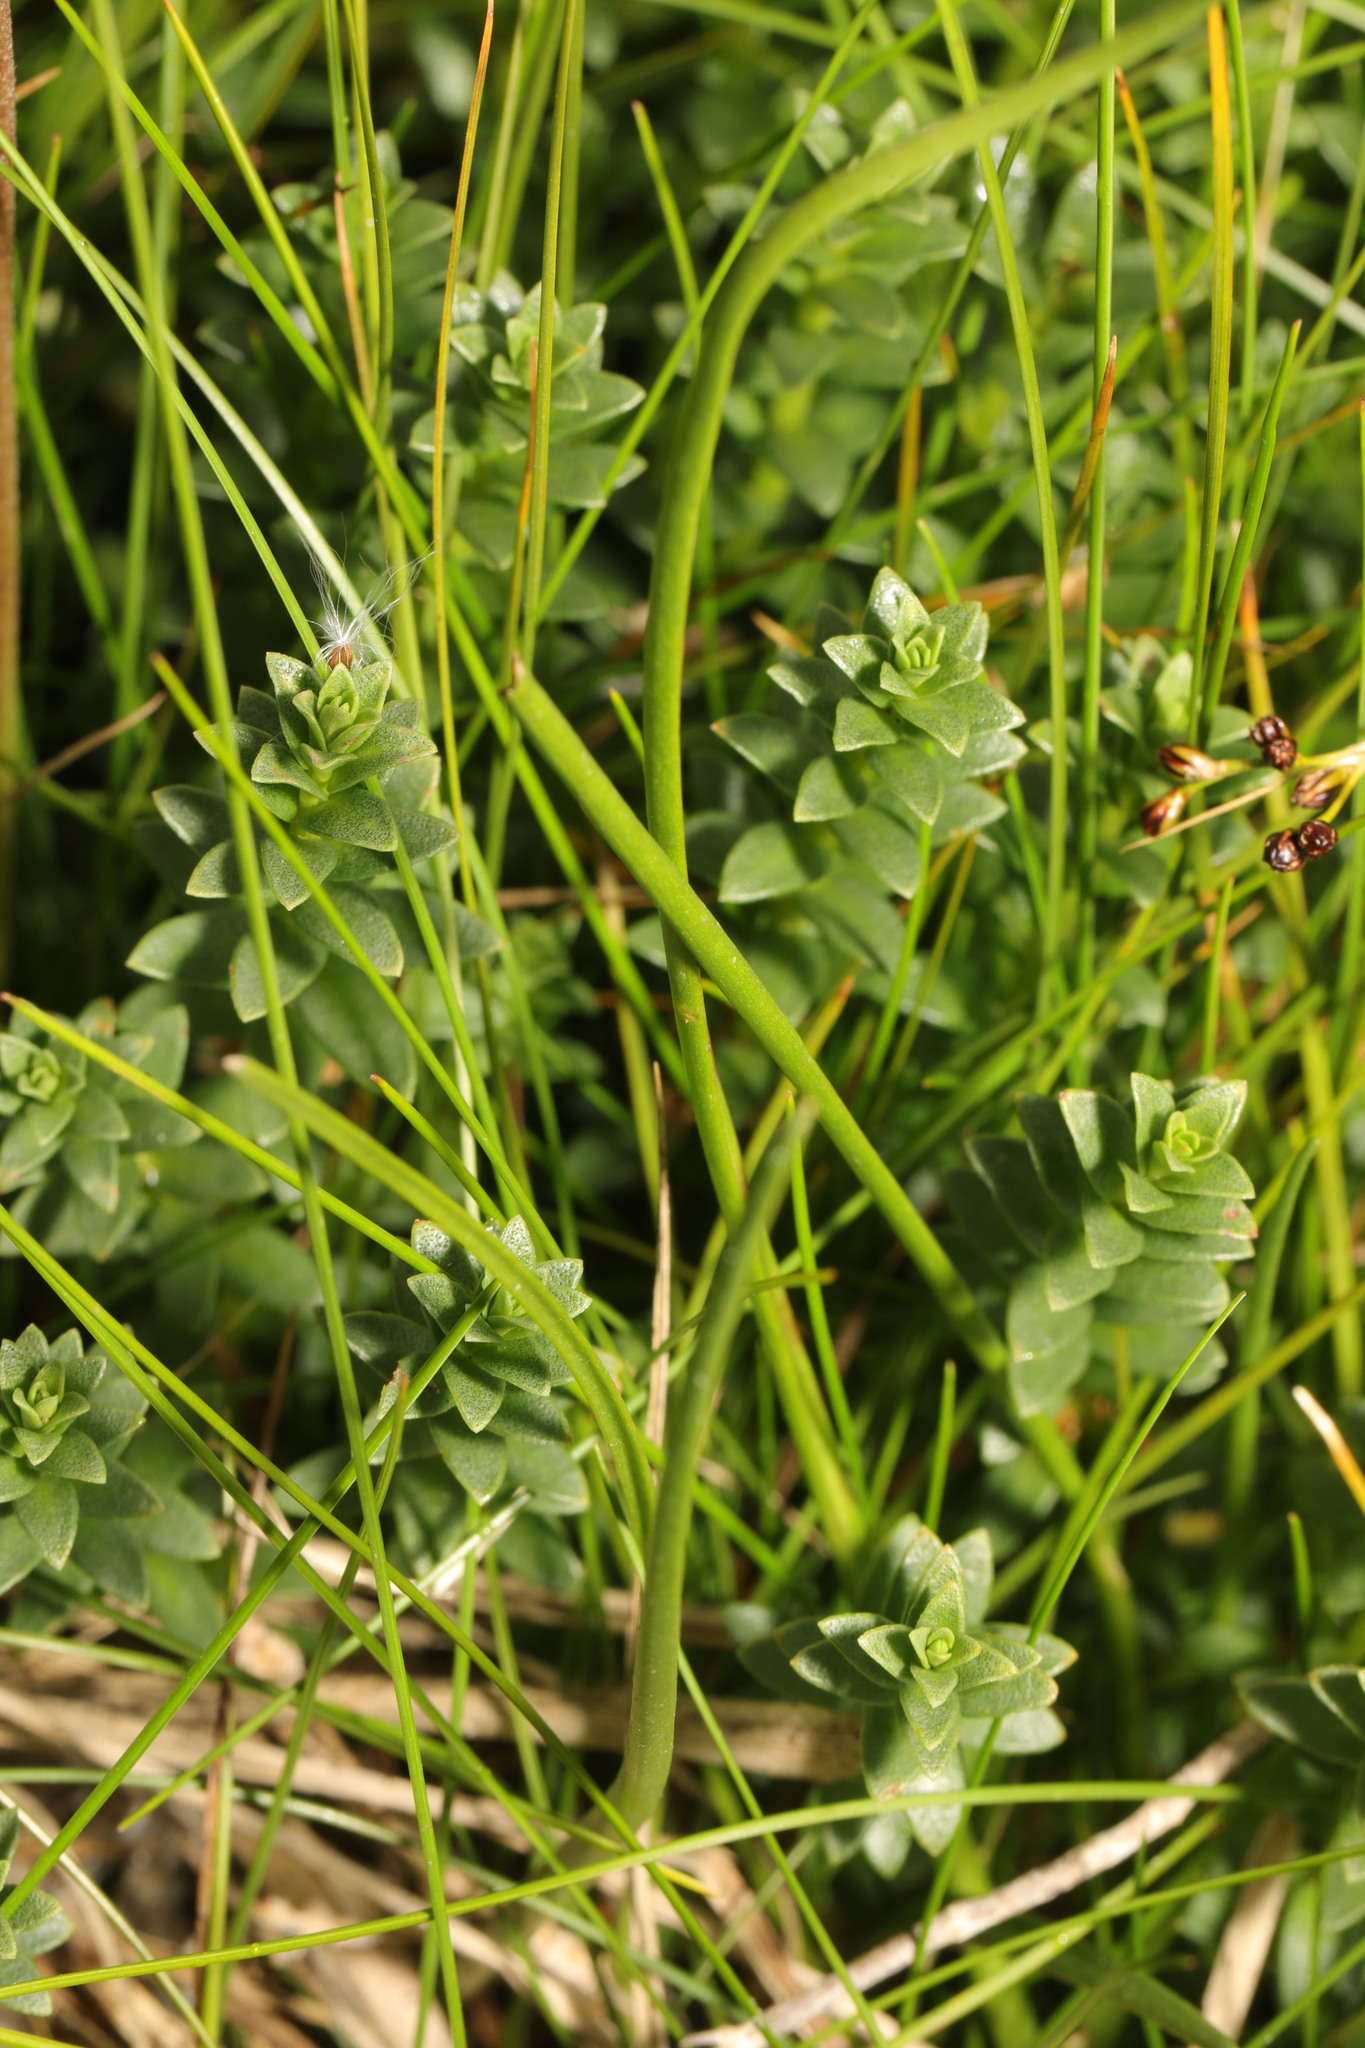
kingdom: Plantae
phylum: Tracheophyta
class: Magnoliopsida
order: Ericales
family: Primulaceae
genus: Lysimachia
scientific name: Lysimachia maritima
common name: Sea milkwort
